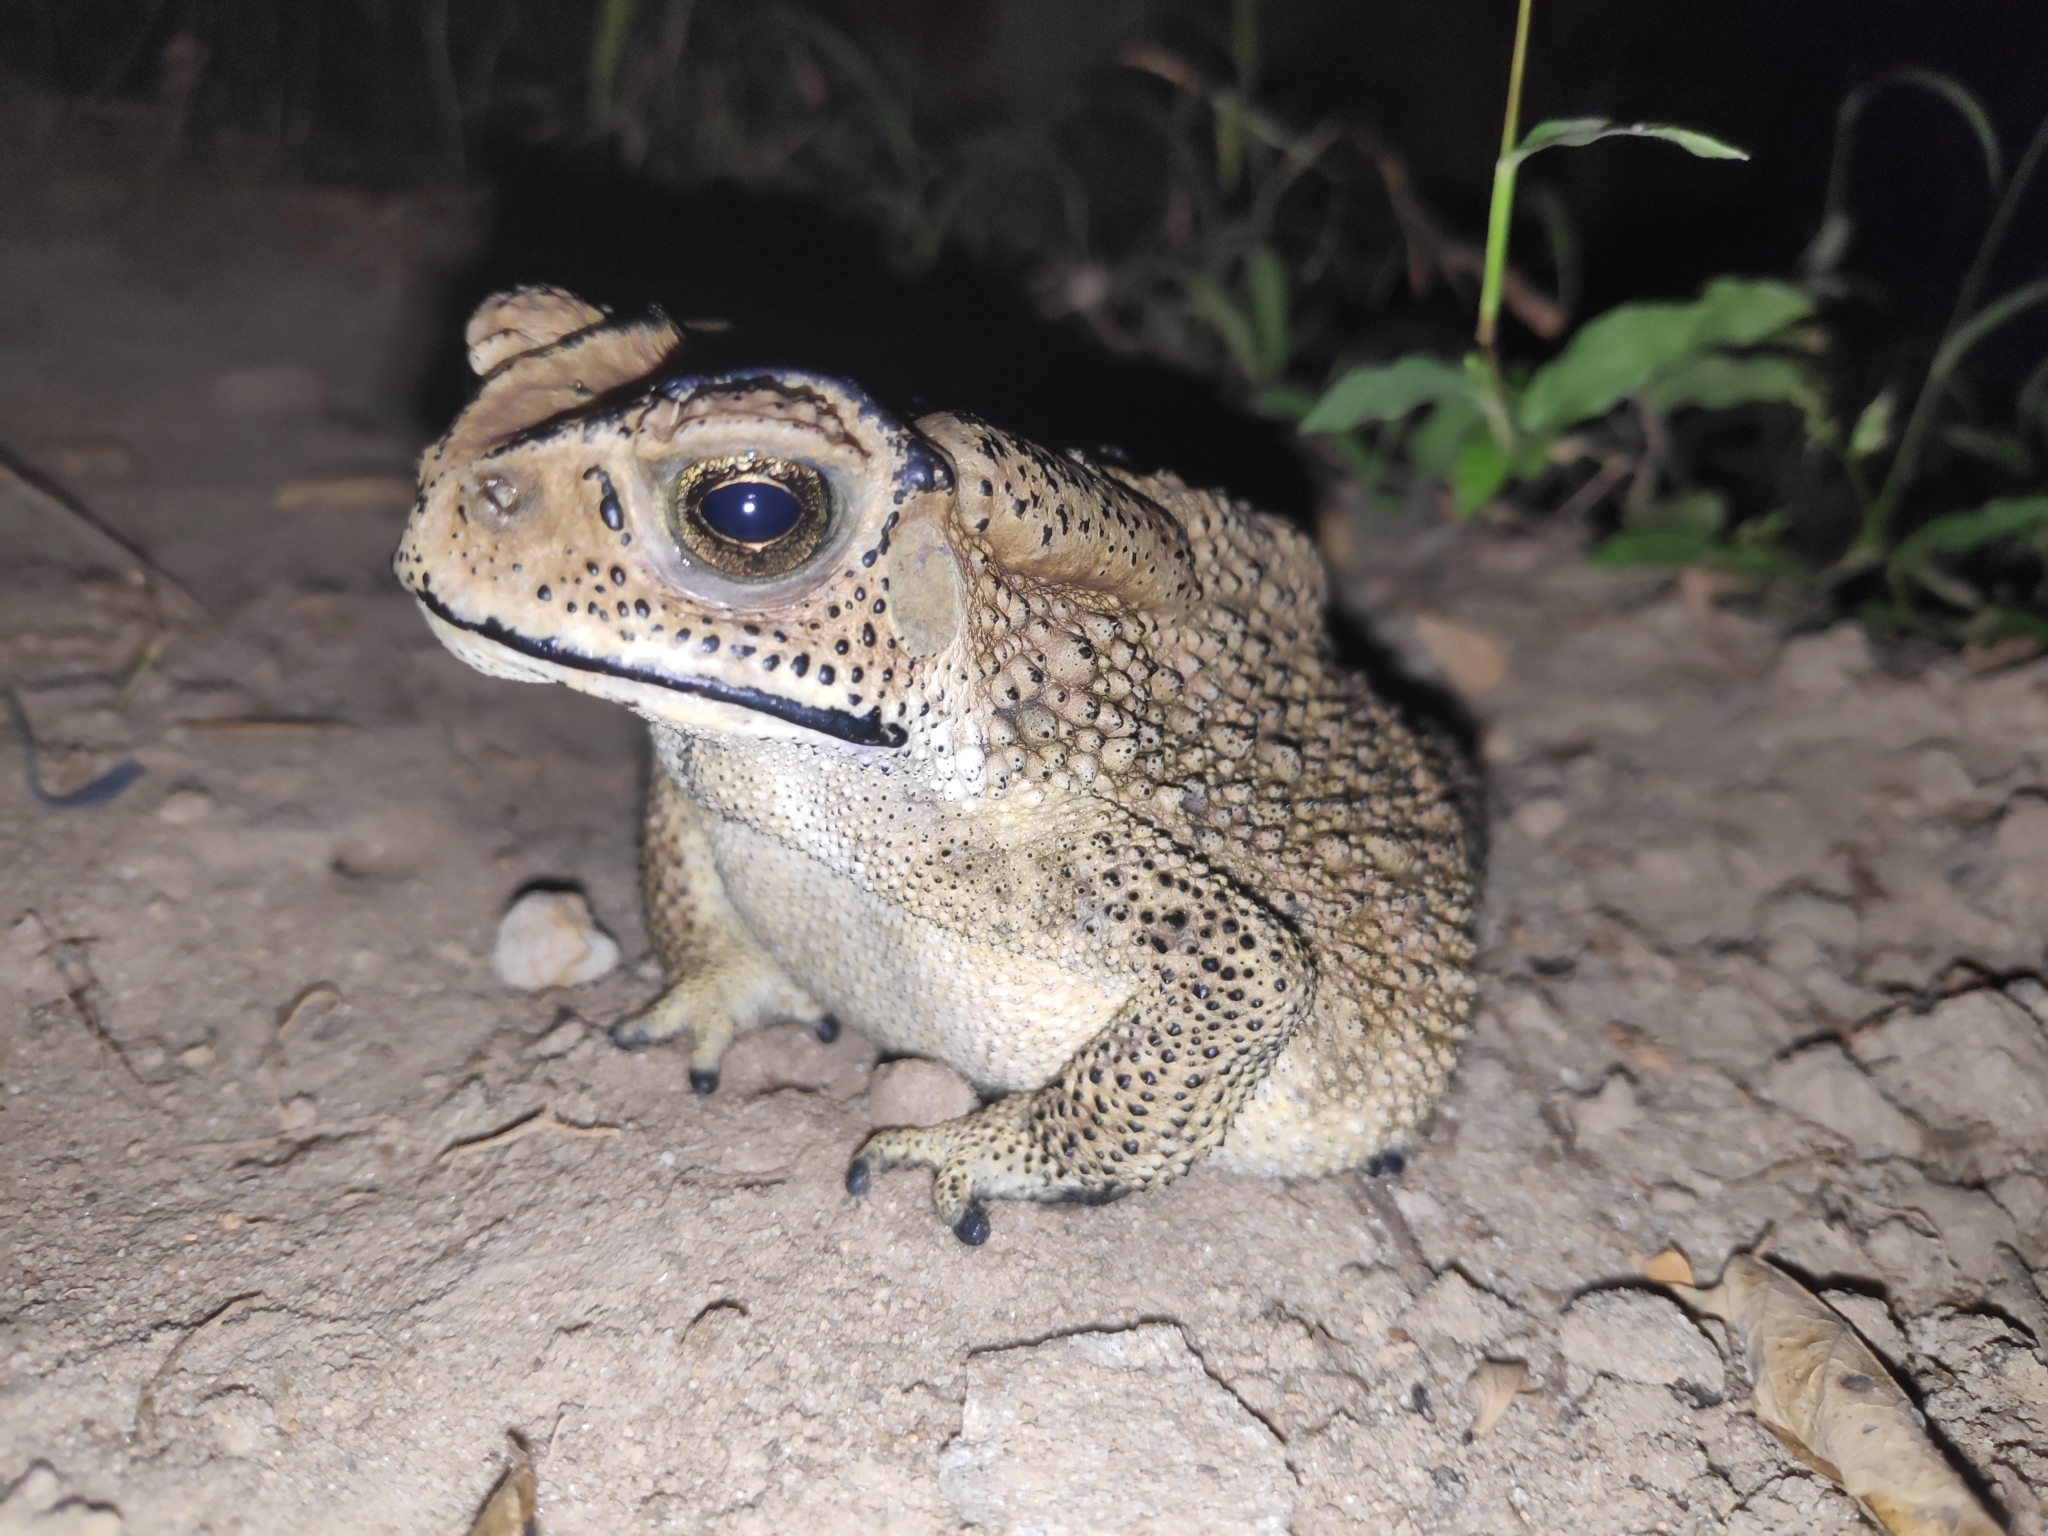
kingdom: Animalia
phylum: Chordata
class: Amphibia
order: Anura
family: Bufonidae
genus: Duttaphrynus
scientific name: Duttaphrynus melanostictus
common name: Common sunda toad
